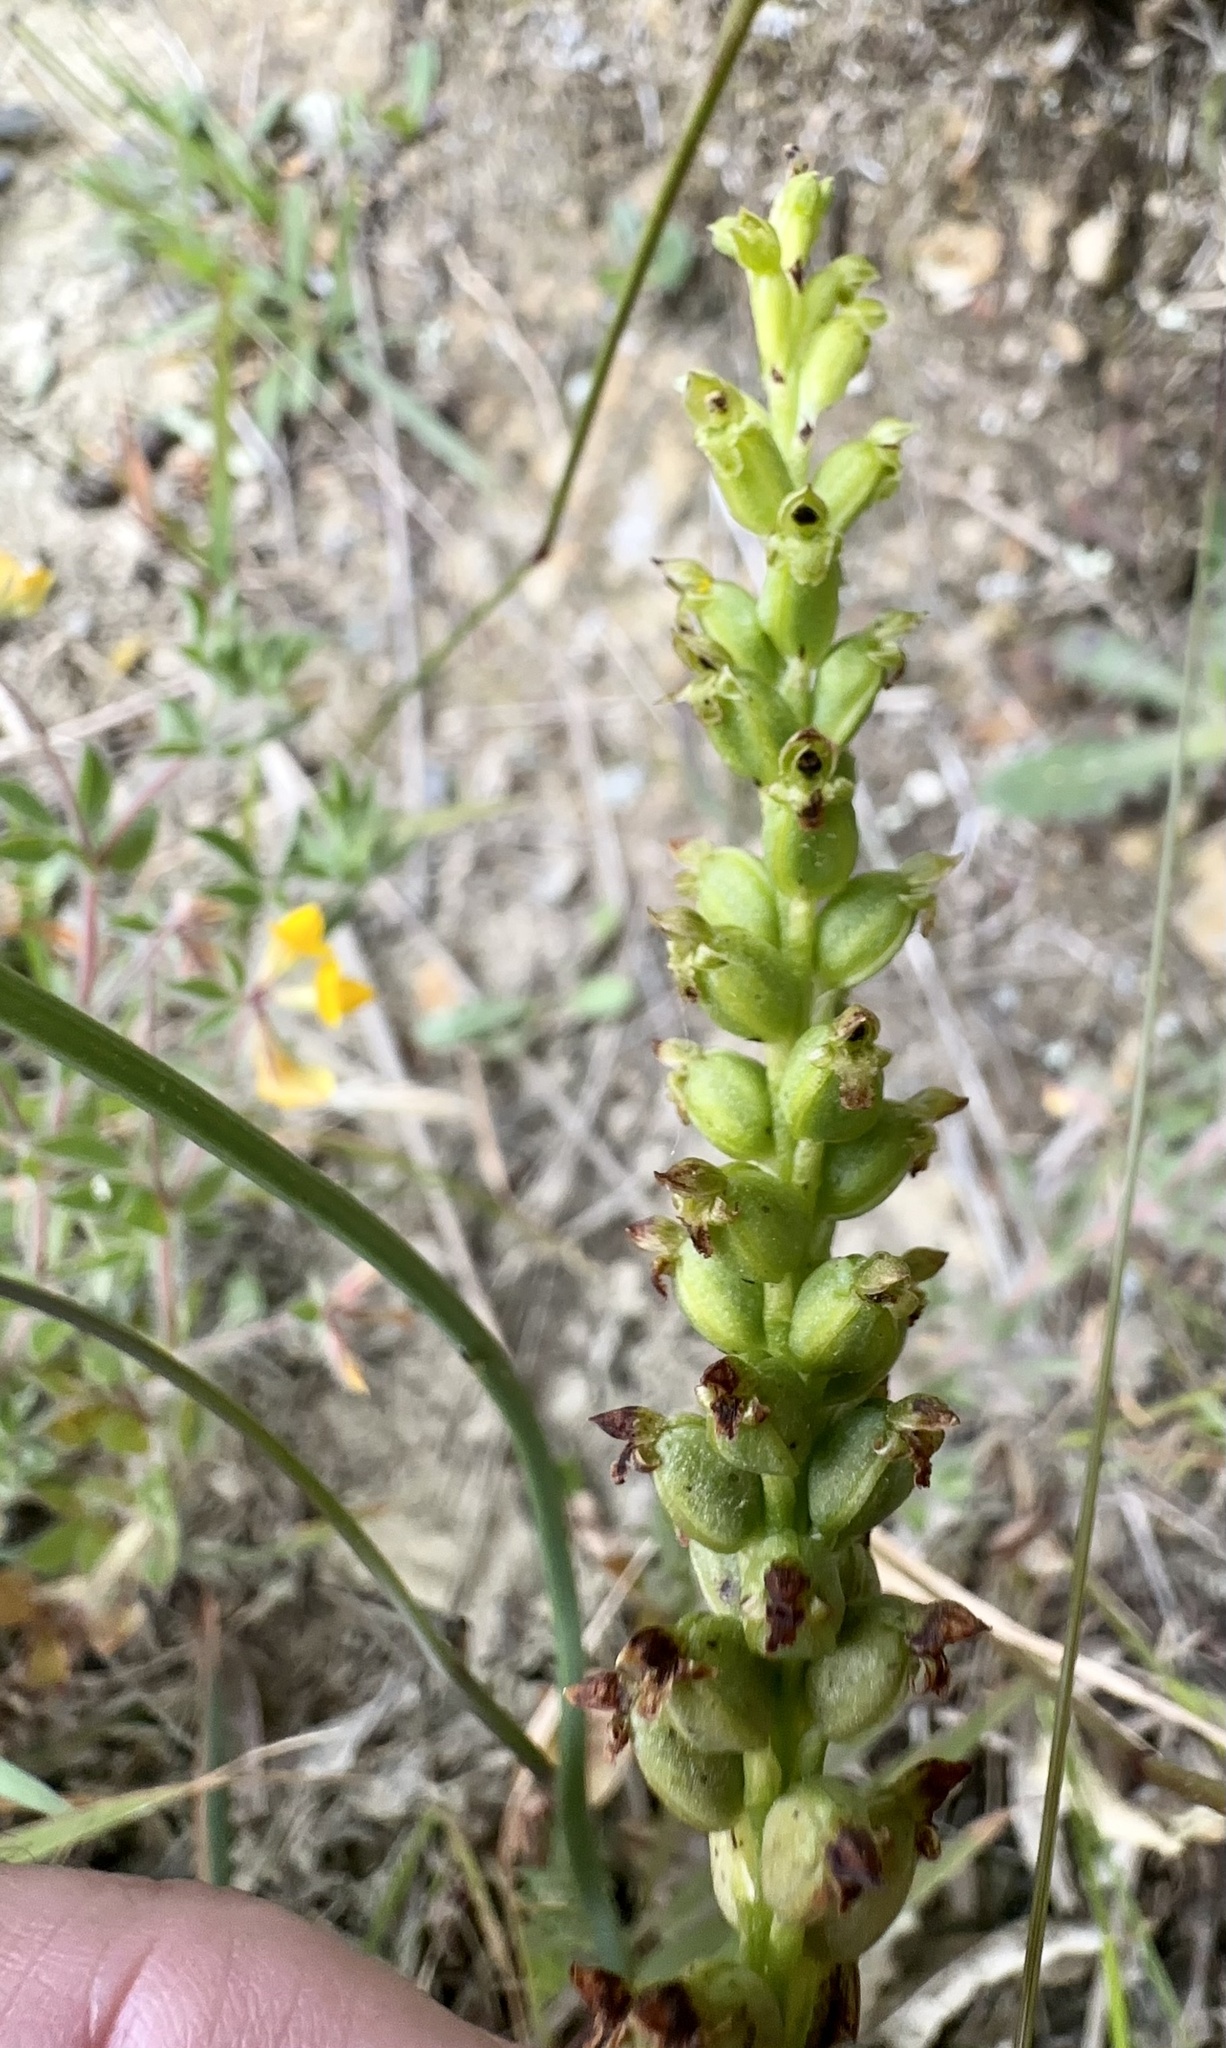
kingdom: Plantae
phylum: Tracheophyta
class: Liliopsida
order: Asparagales
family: Orchidaceae
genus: Microtis
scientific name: Microtis unifolia
